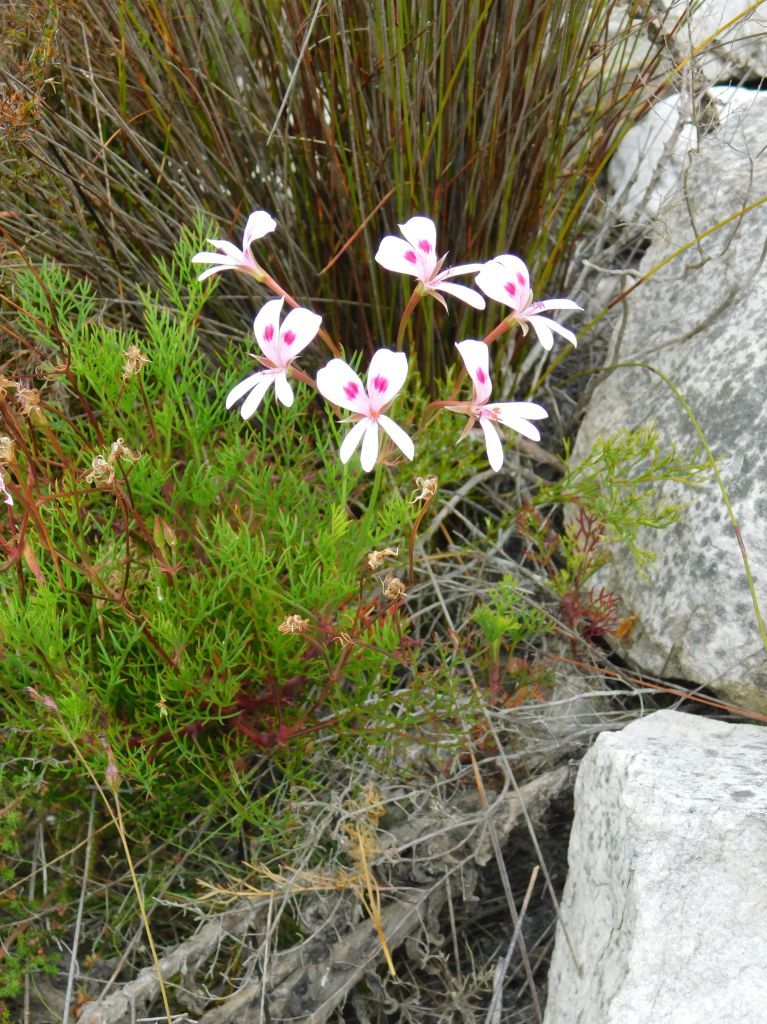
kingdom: Plantae
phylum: Tracheophyta
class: Magnoliopsida
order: Geraniales
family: Geraniaceae
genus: Pelargonium
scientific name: Pelargonium artemisiifolium
